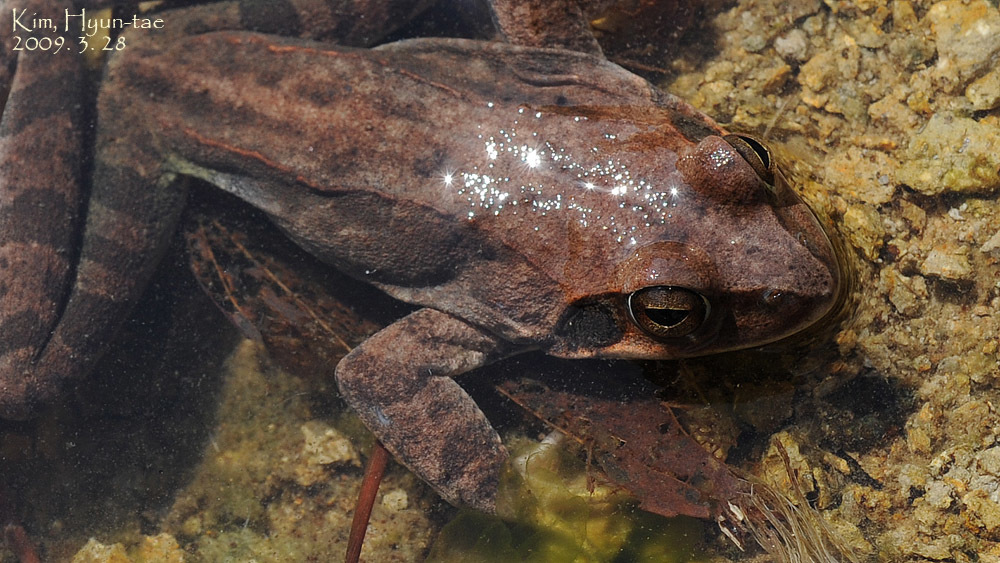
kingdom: Animalia
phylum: Chordata
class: Amphibia
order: Anura
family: Ranidae
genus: Rana
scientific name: Rana uenoi
